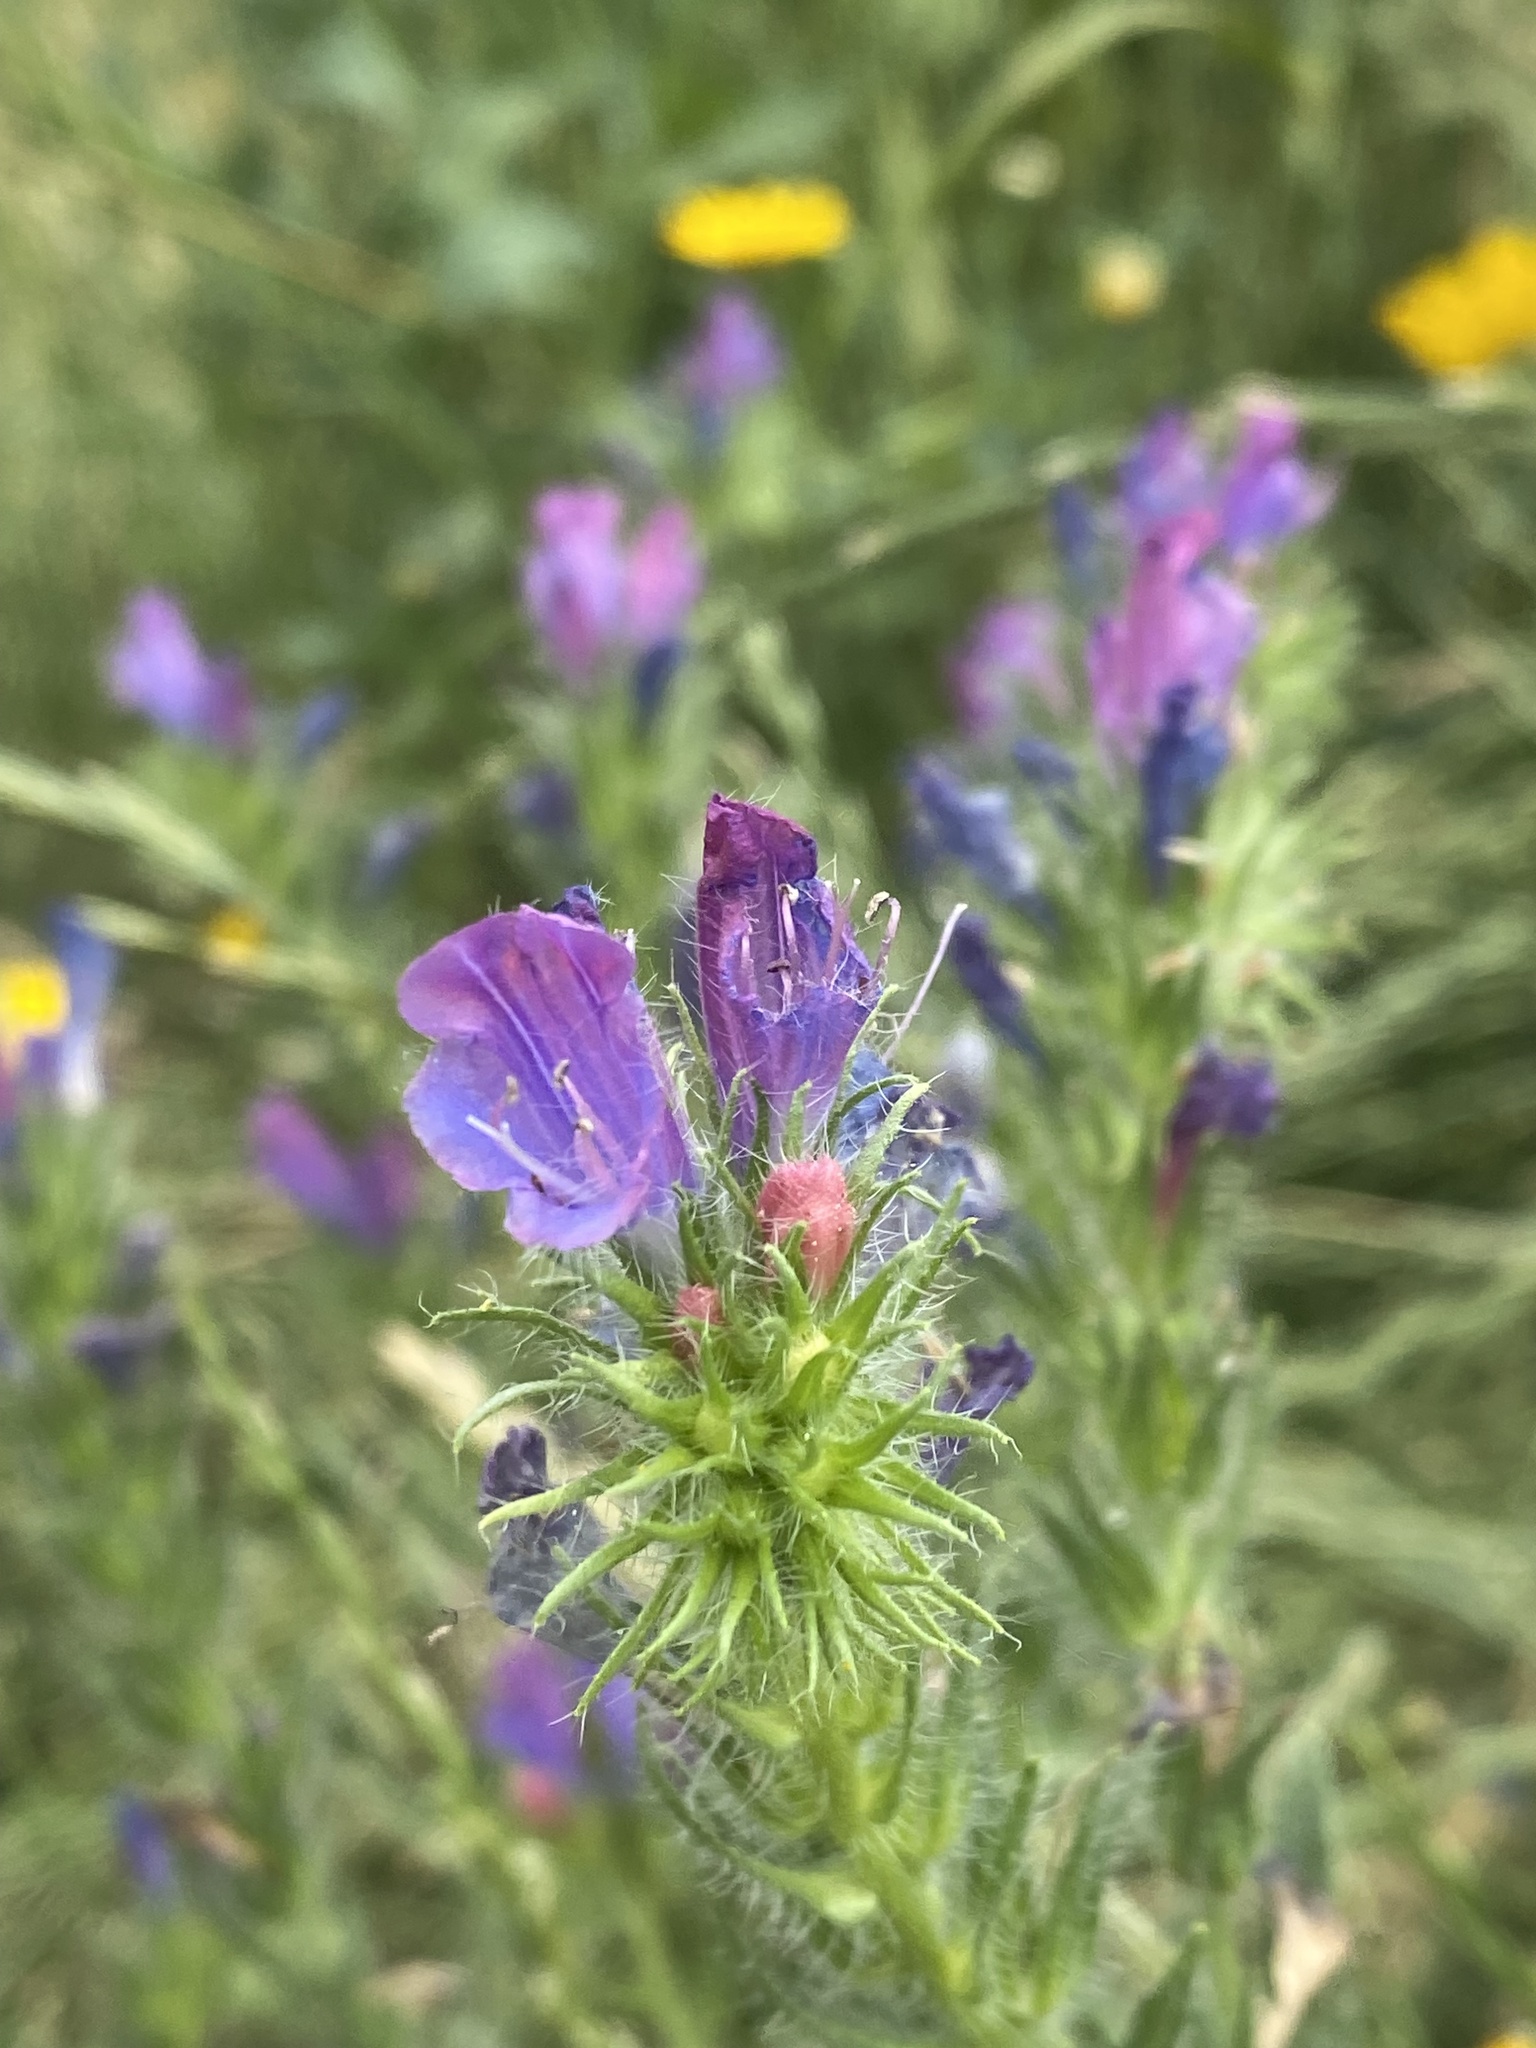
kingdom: Plantae
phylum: Tracheophyta
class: Magnoliopsida
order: Boraginales
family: Boraginaceae
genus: Echium
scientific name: Echium plantagineum
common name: Purple viper's-bugloss
